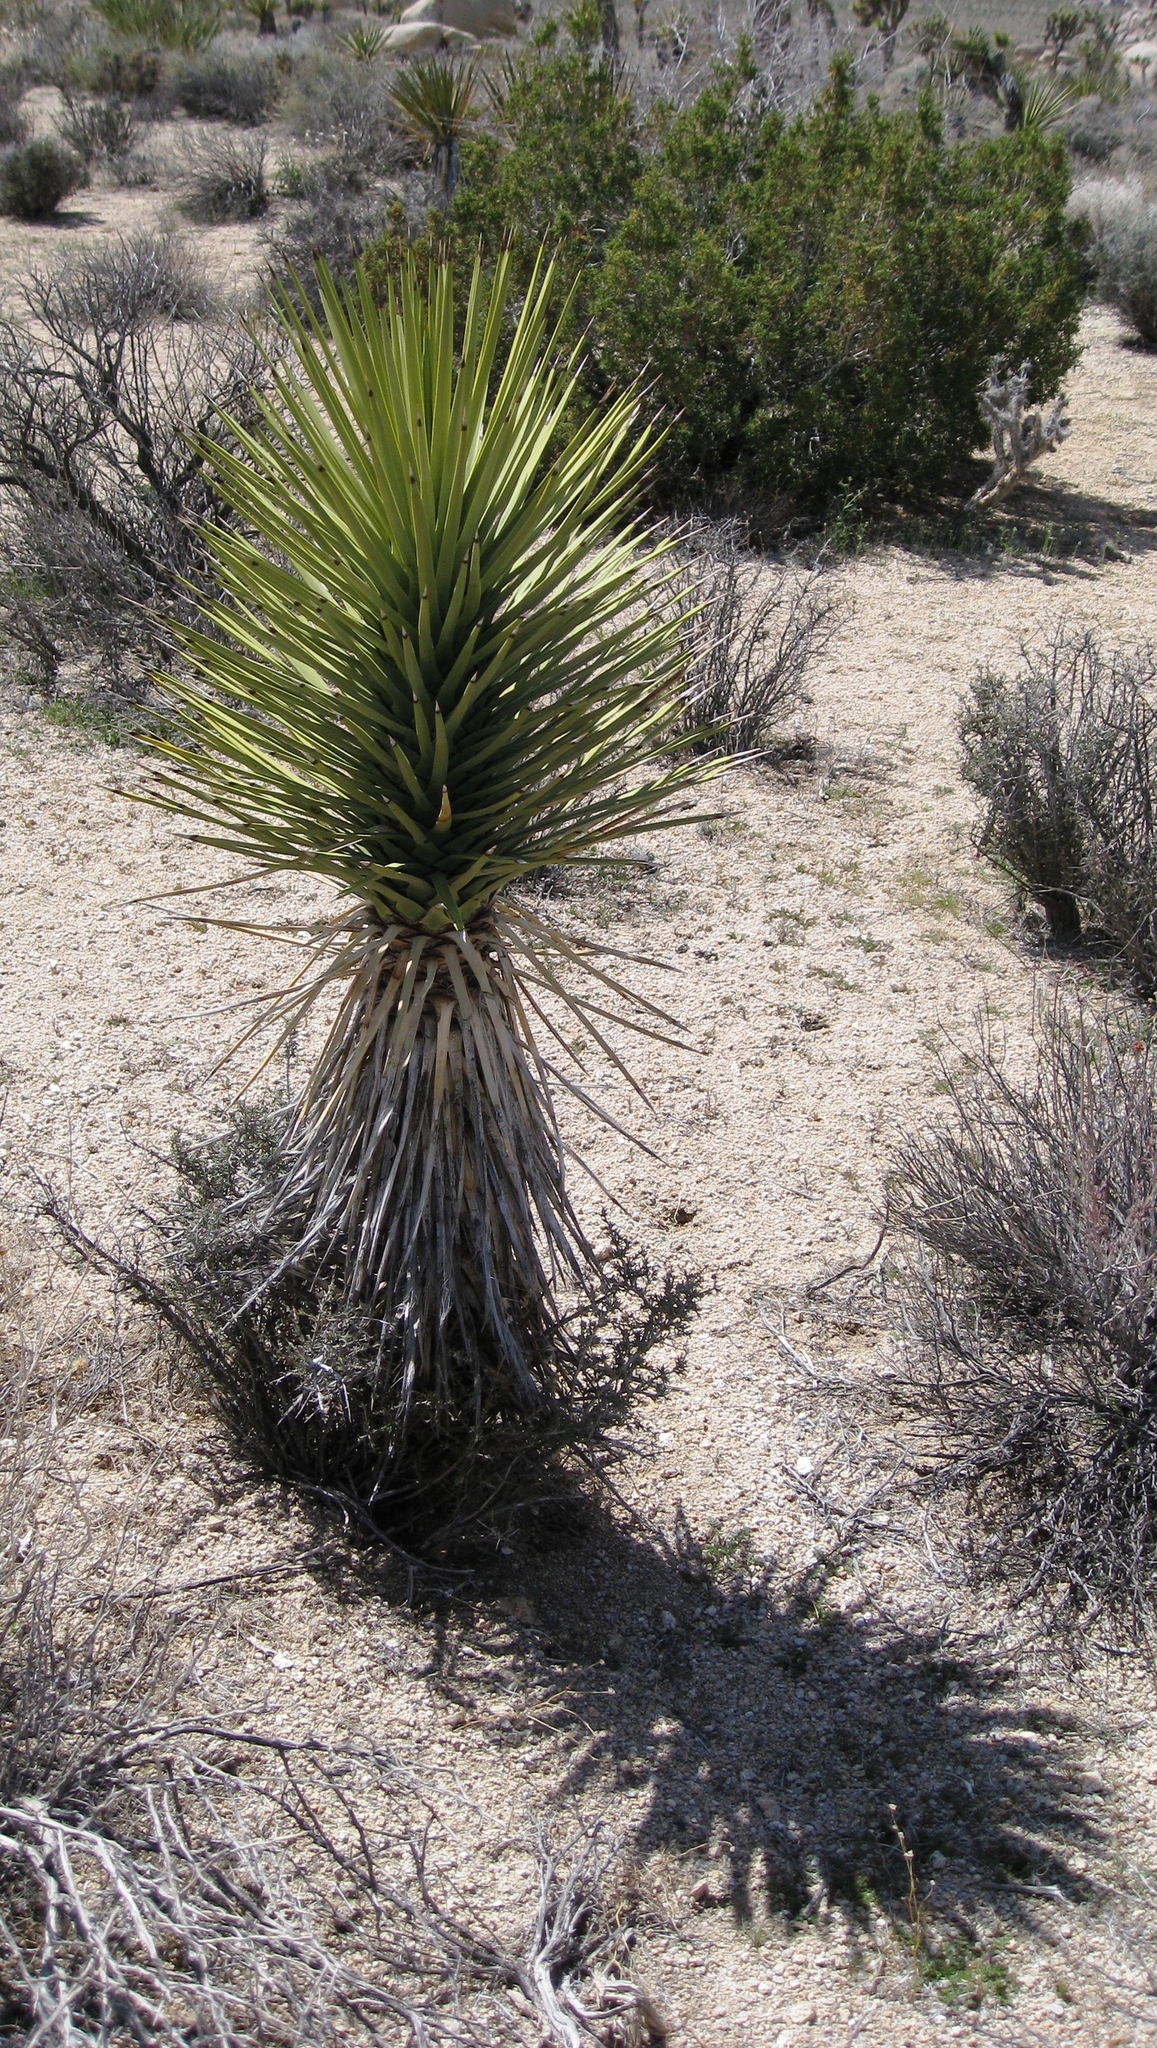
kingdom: Plantae
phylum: Tracheophyta
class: Liliopsida
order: Asparagales
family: Asparagaceae
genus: Yucca
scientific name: Yucca brevifolia
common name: Joshua tree
